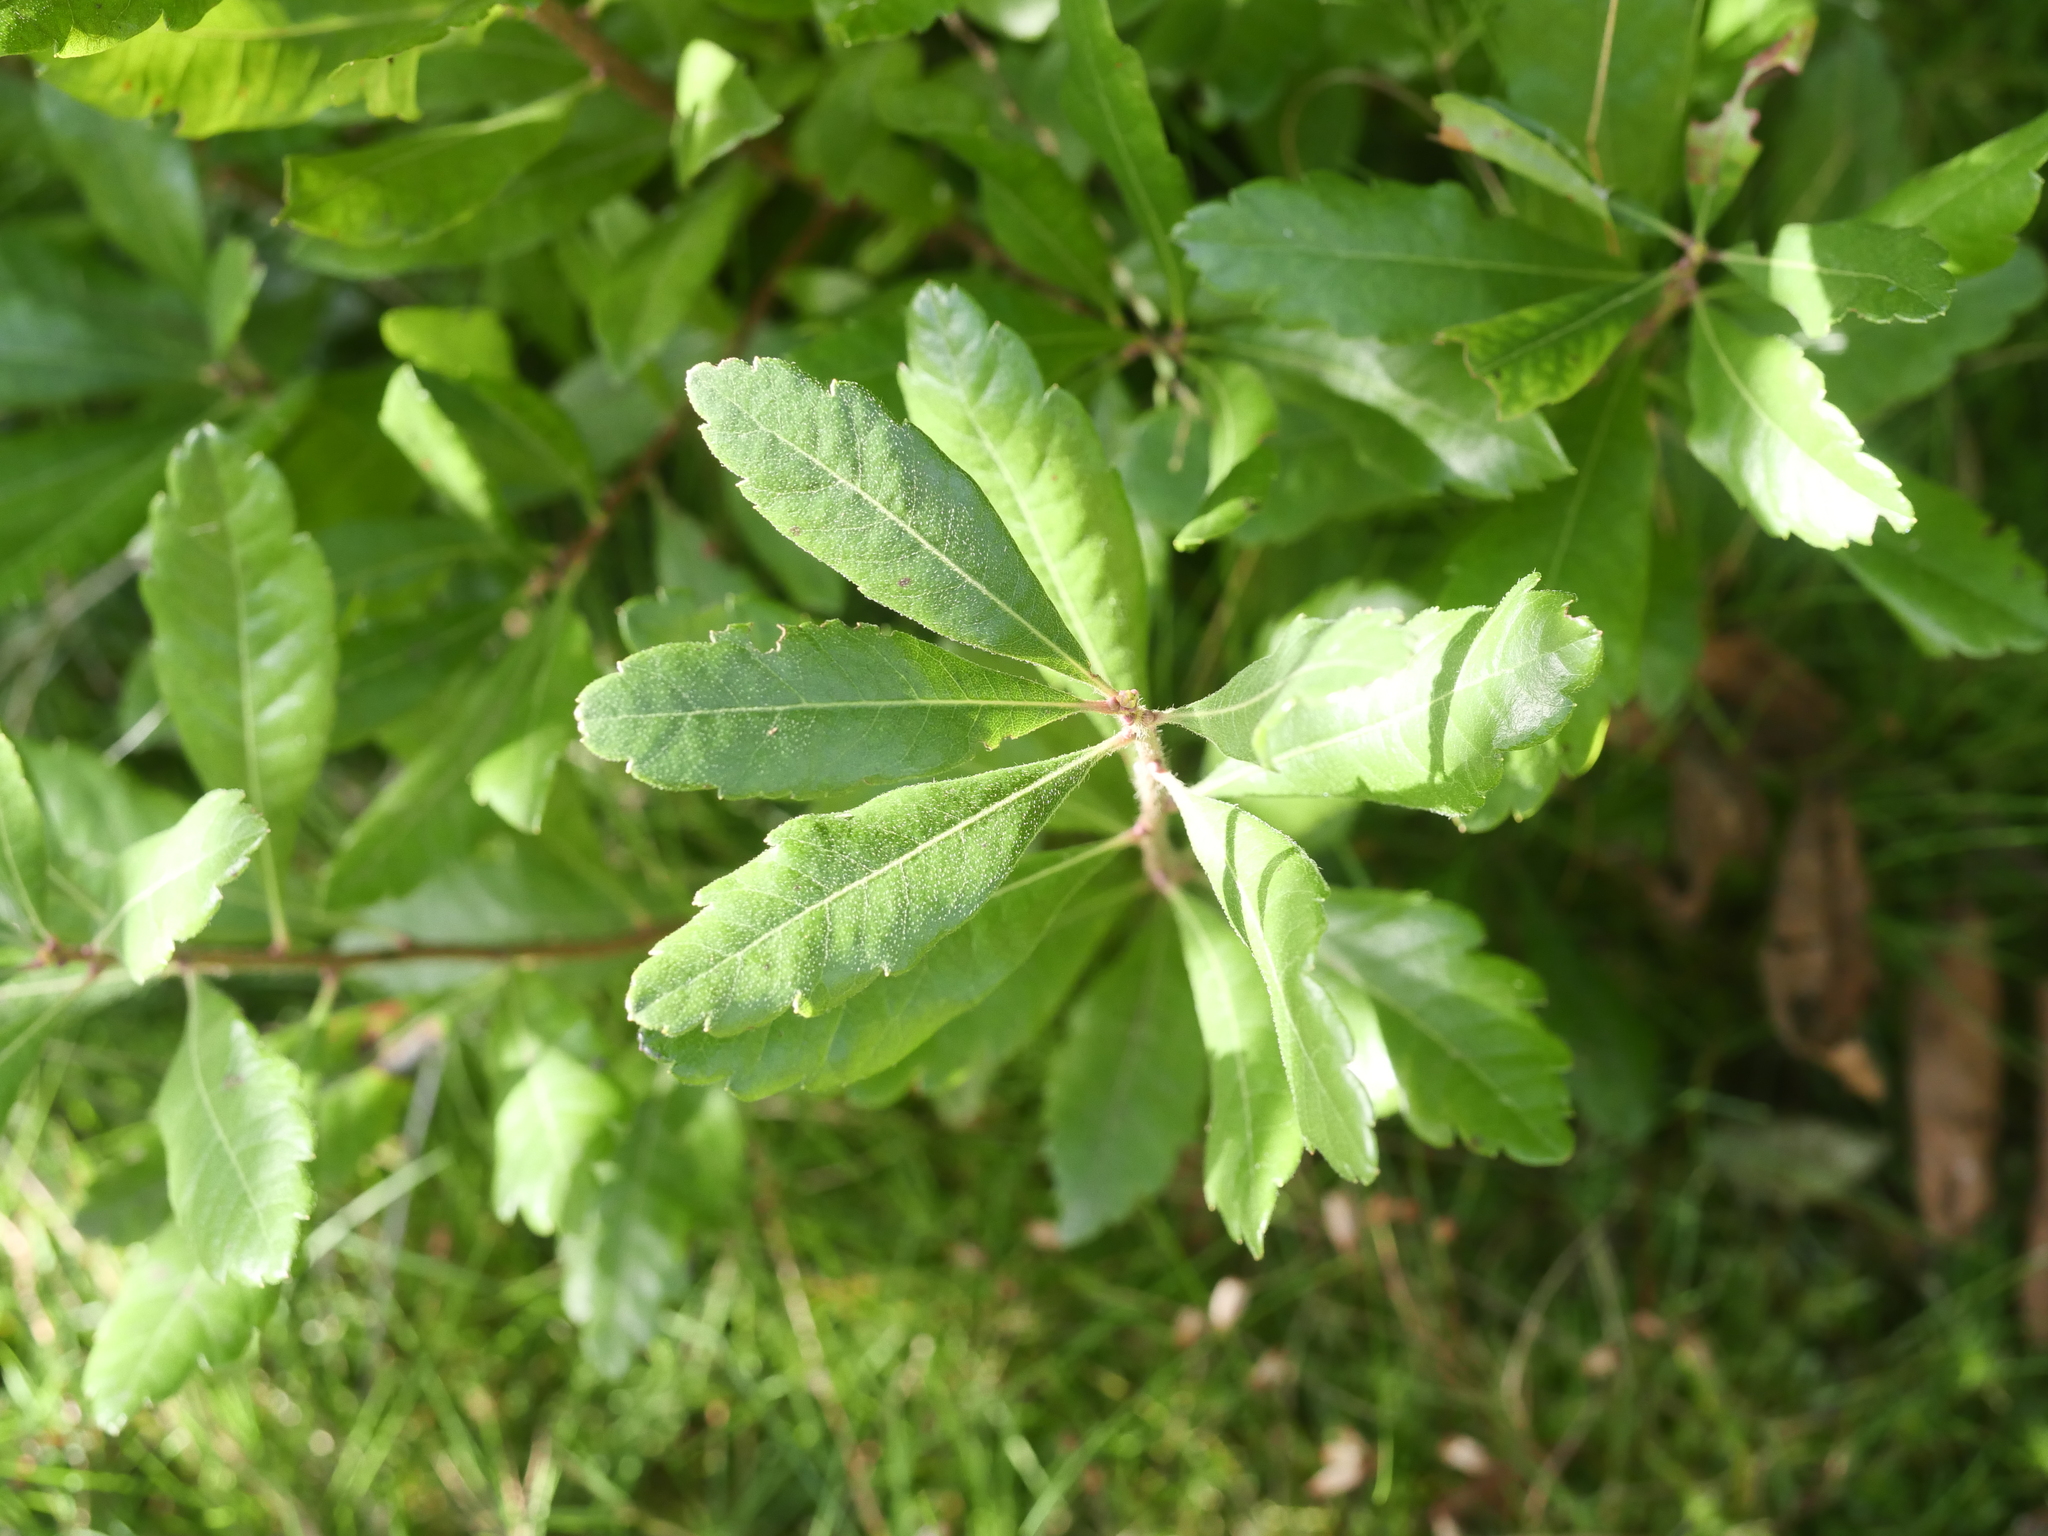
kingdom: Plantae
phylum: Tracheophyta
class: Magnoliopsida
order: Fagales
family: Myricaceae
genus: Morella
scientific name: Morella pensylvanica
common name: Northern bayberry
